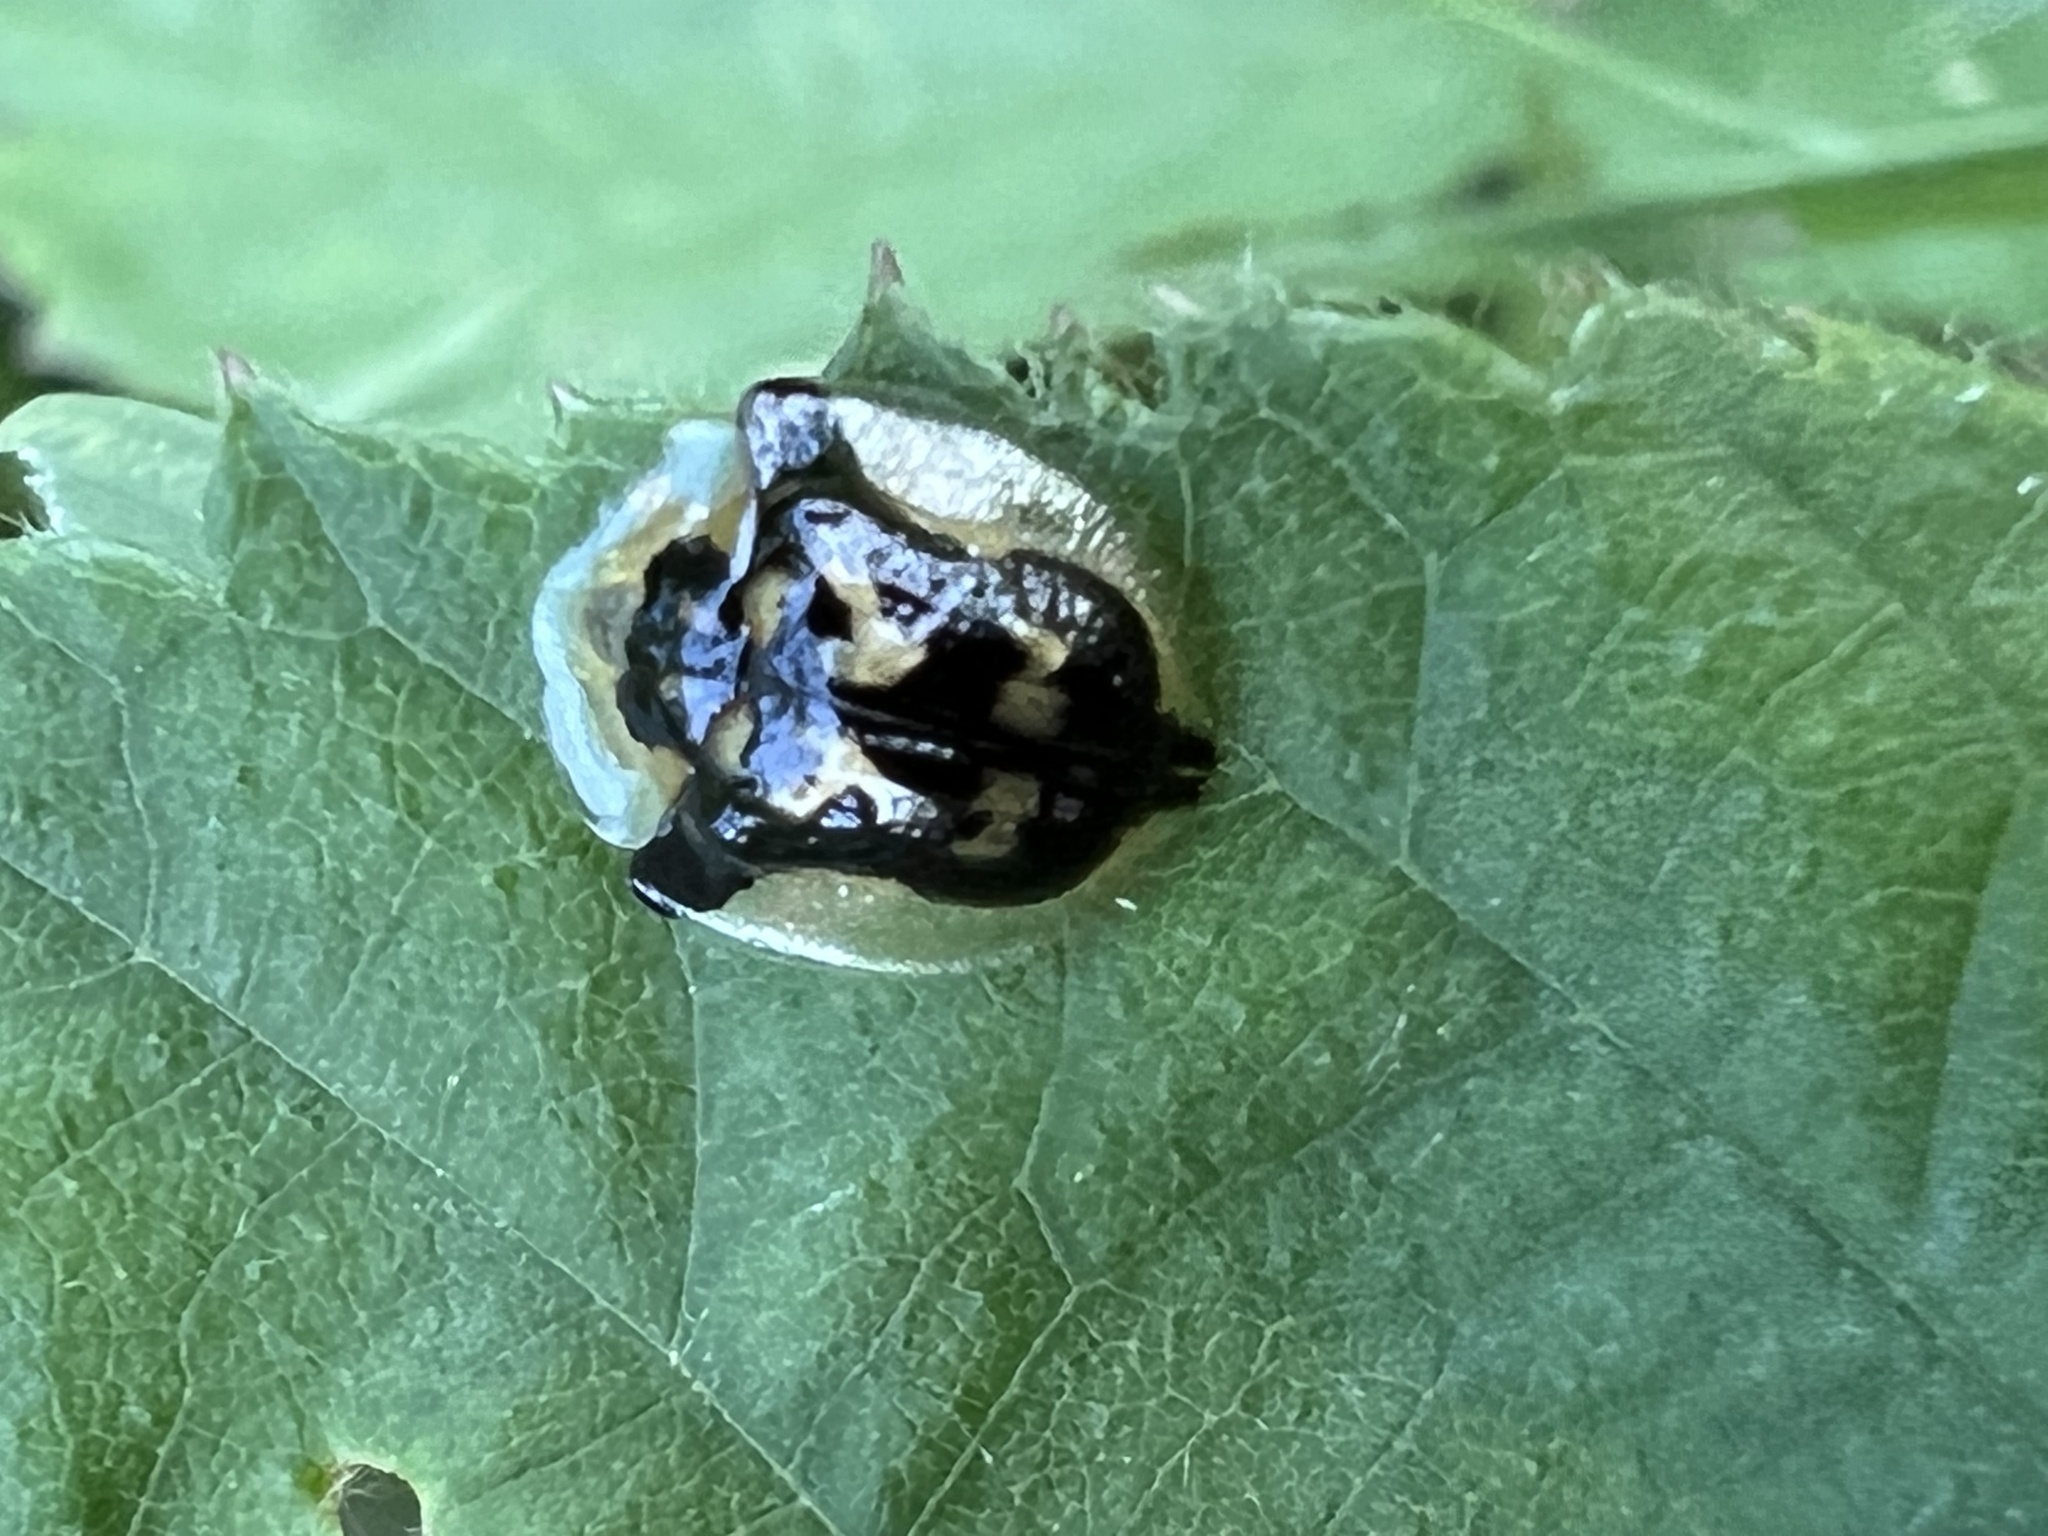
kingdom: Animalia
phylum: Arthropoda
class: Insecta
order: Coleoptera
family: Chrysomelidae
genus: Deloyala
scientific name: Deloyala guttata
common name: Mottled tortoise beetle
